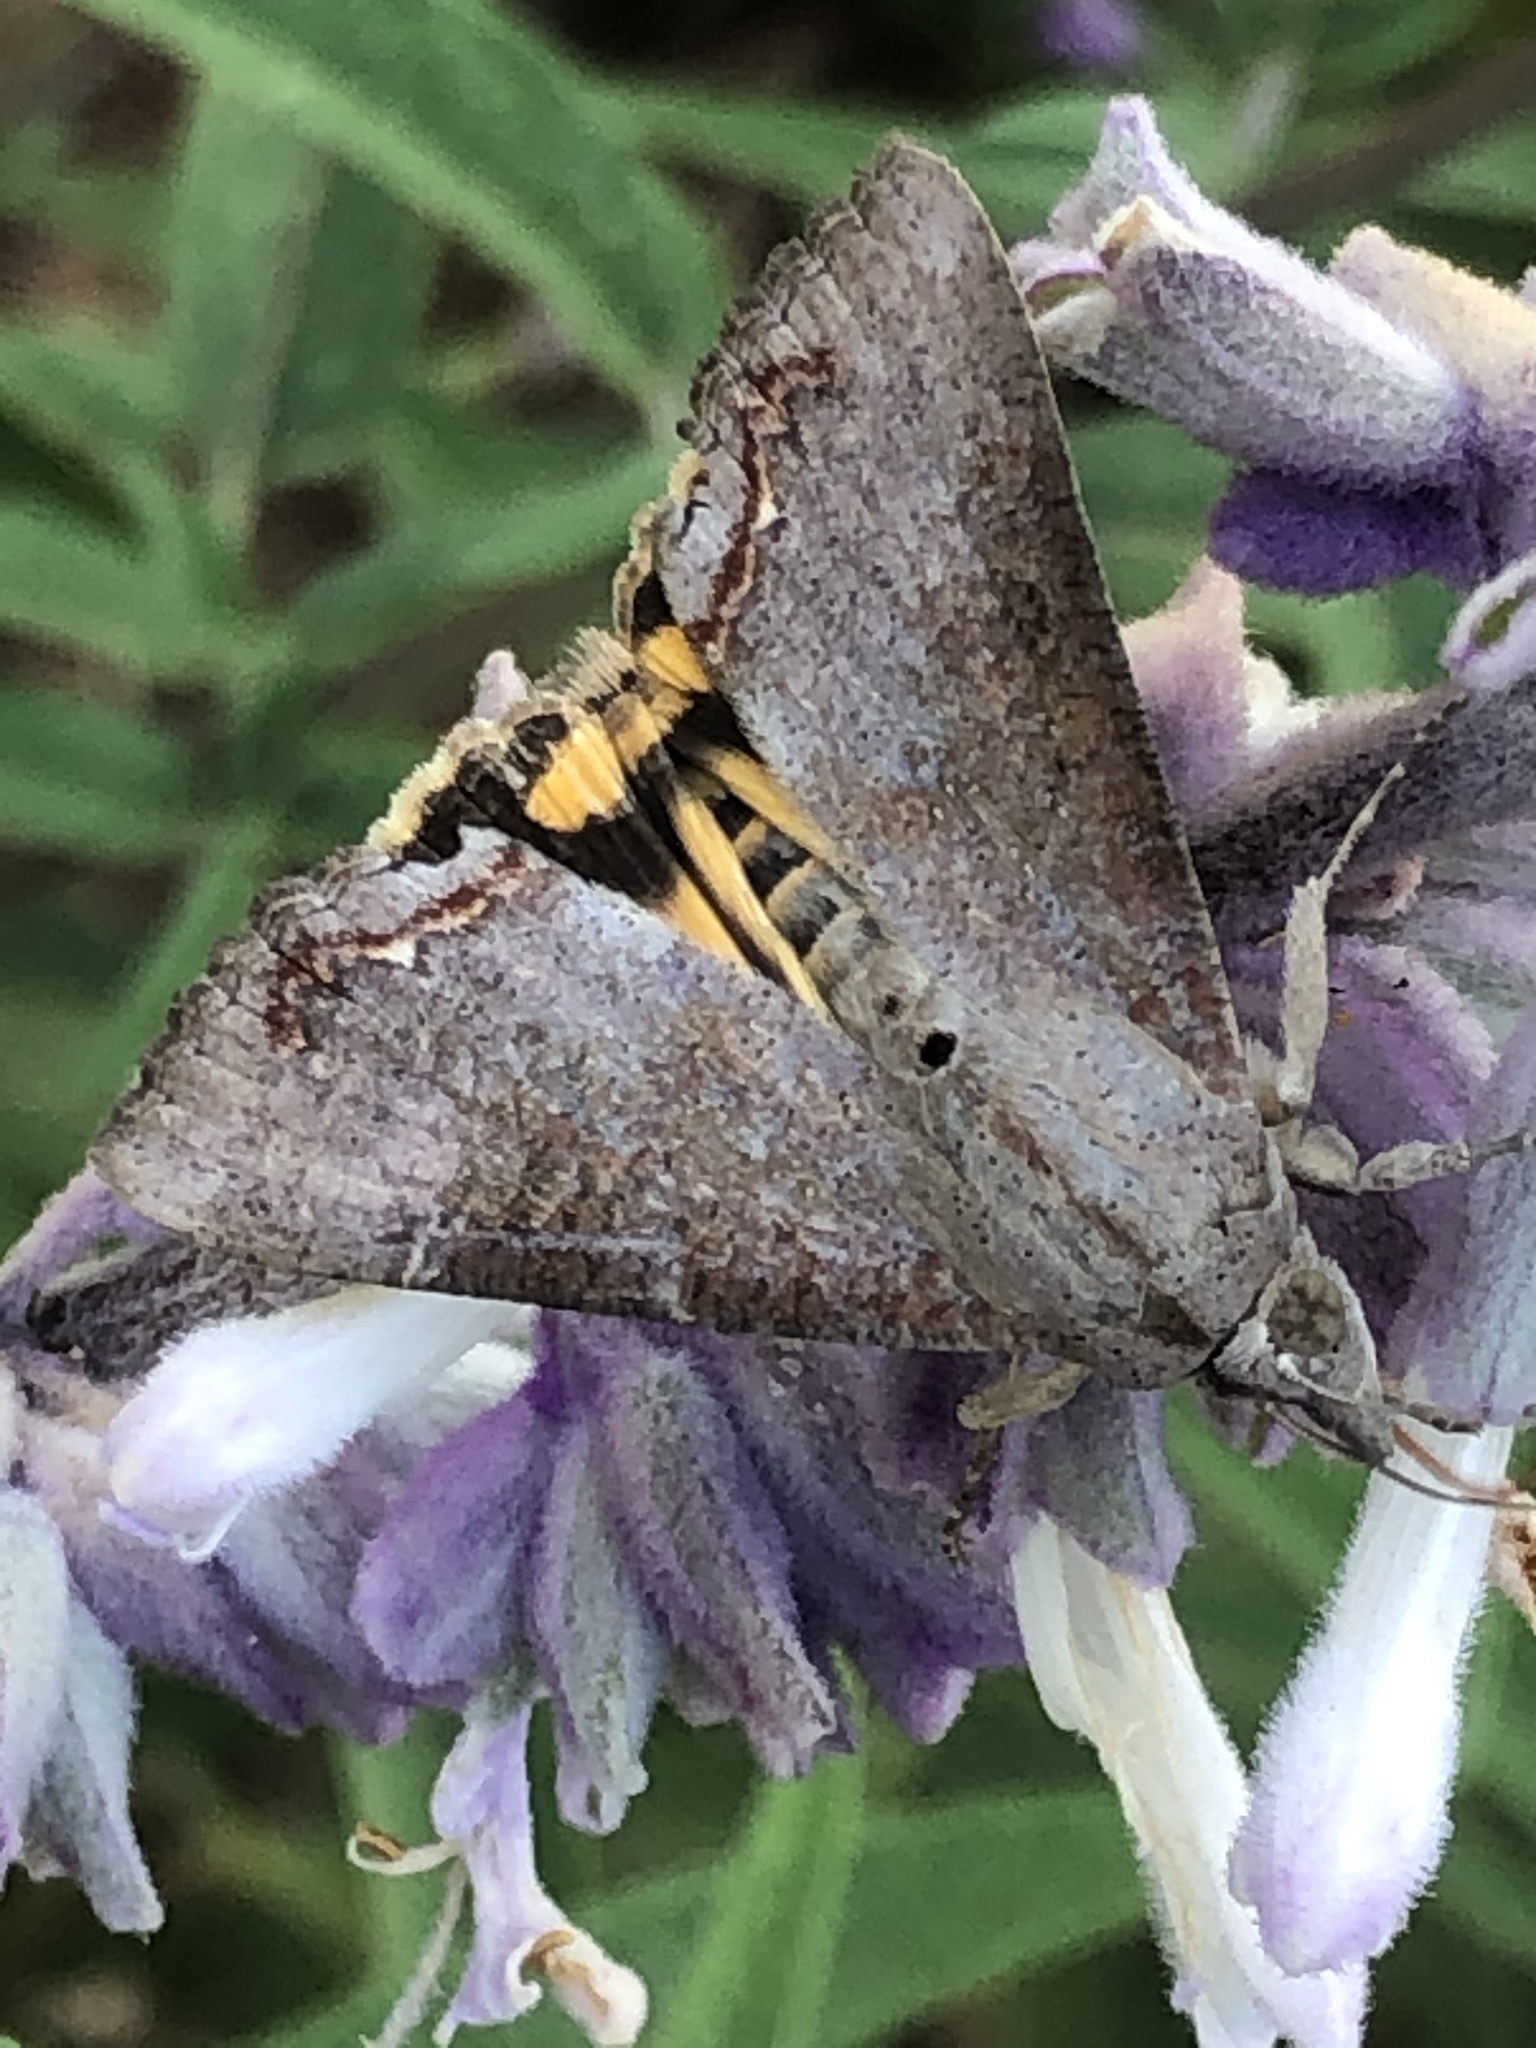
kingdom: Animalia
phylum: Arthropoda
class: Insecta
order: Lepidoptera
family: Erebidae
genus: Hypocala
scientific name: Hypocala andremona
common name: Hypocala moth
